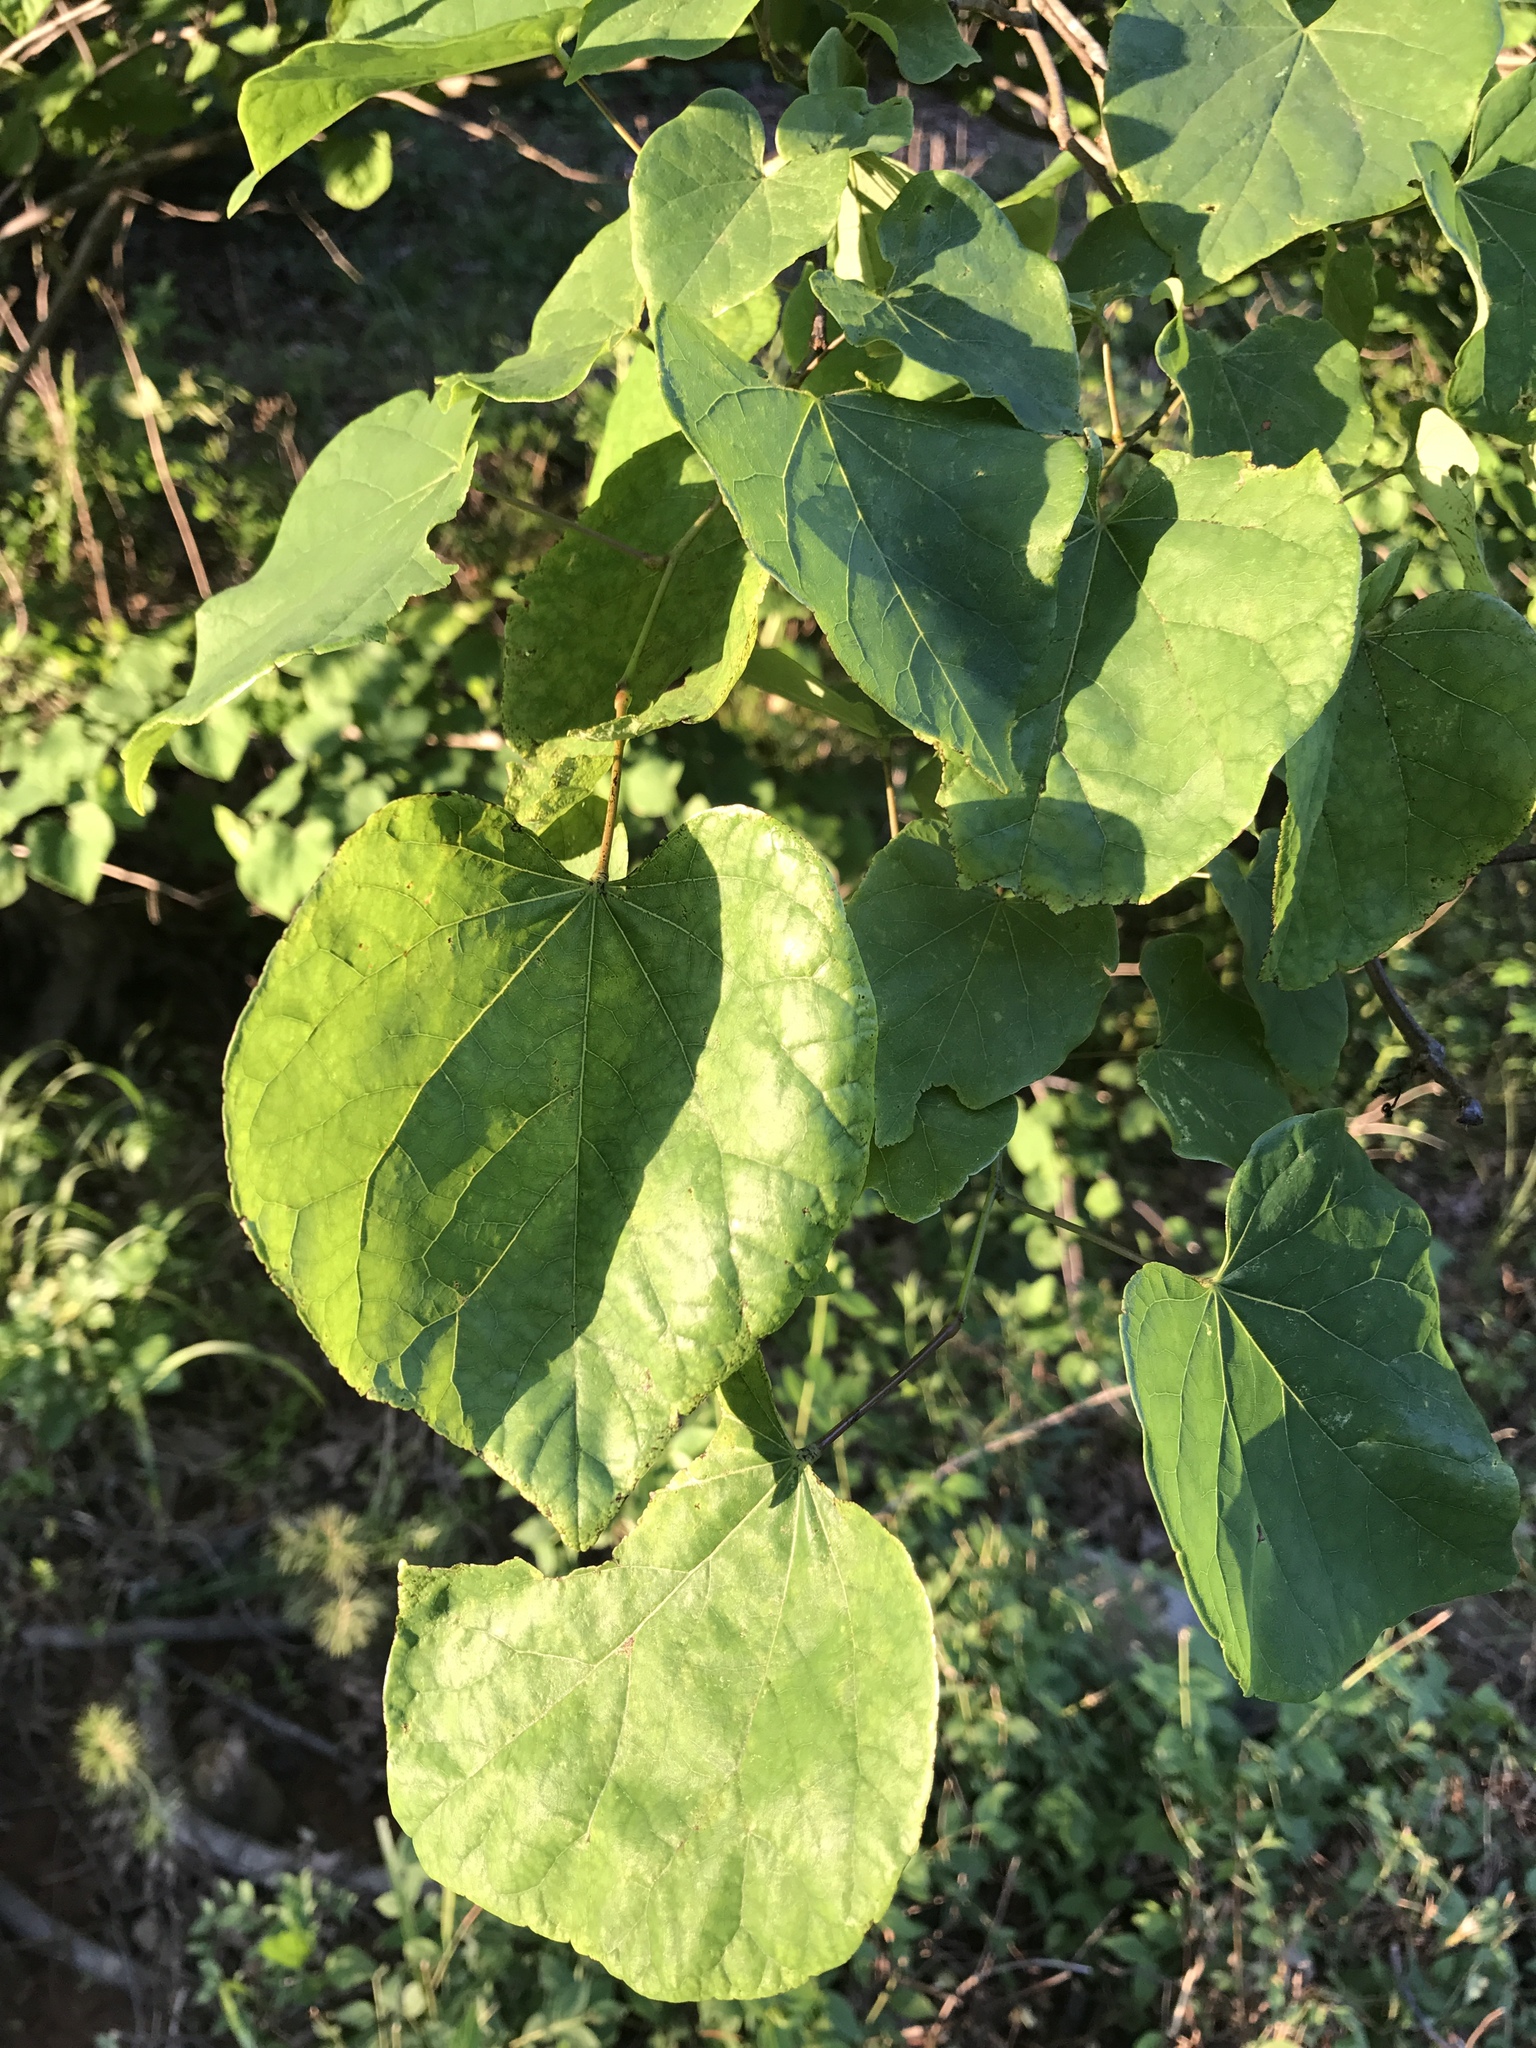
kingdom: Plantae
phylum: Tracheophyta
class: Magnoliopsida
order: Fabales
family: Fabaceae
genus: Cercis
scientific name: Cercis canadensis
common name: Eastern redbud
